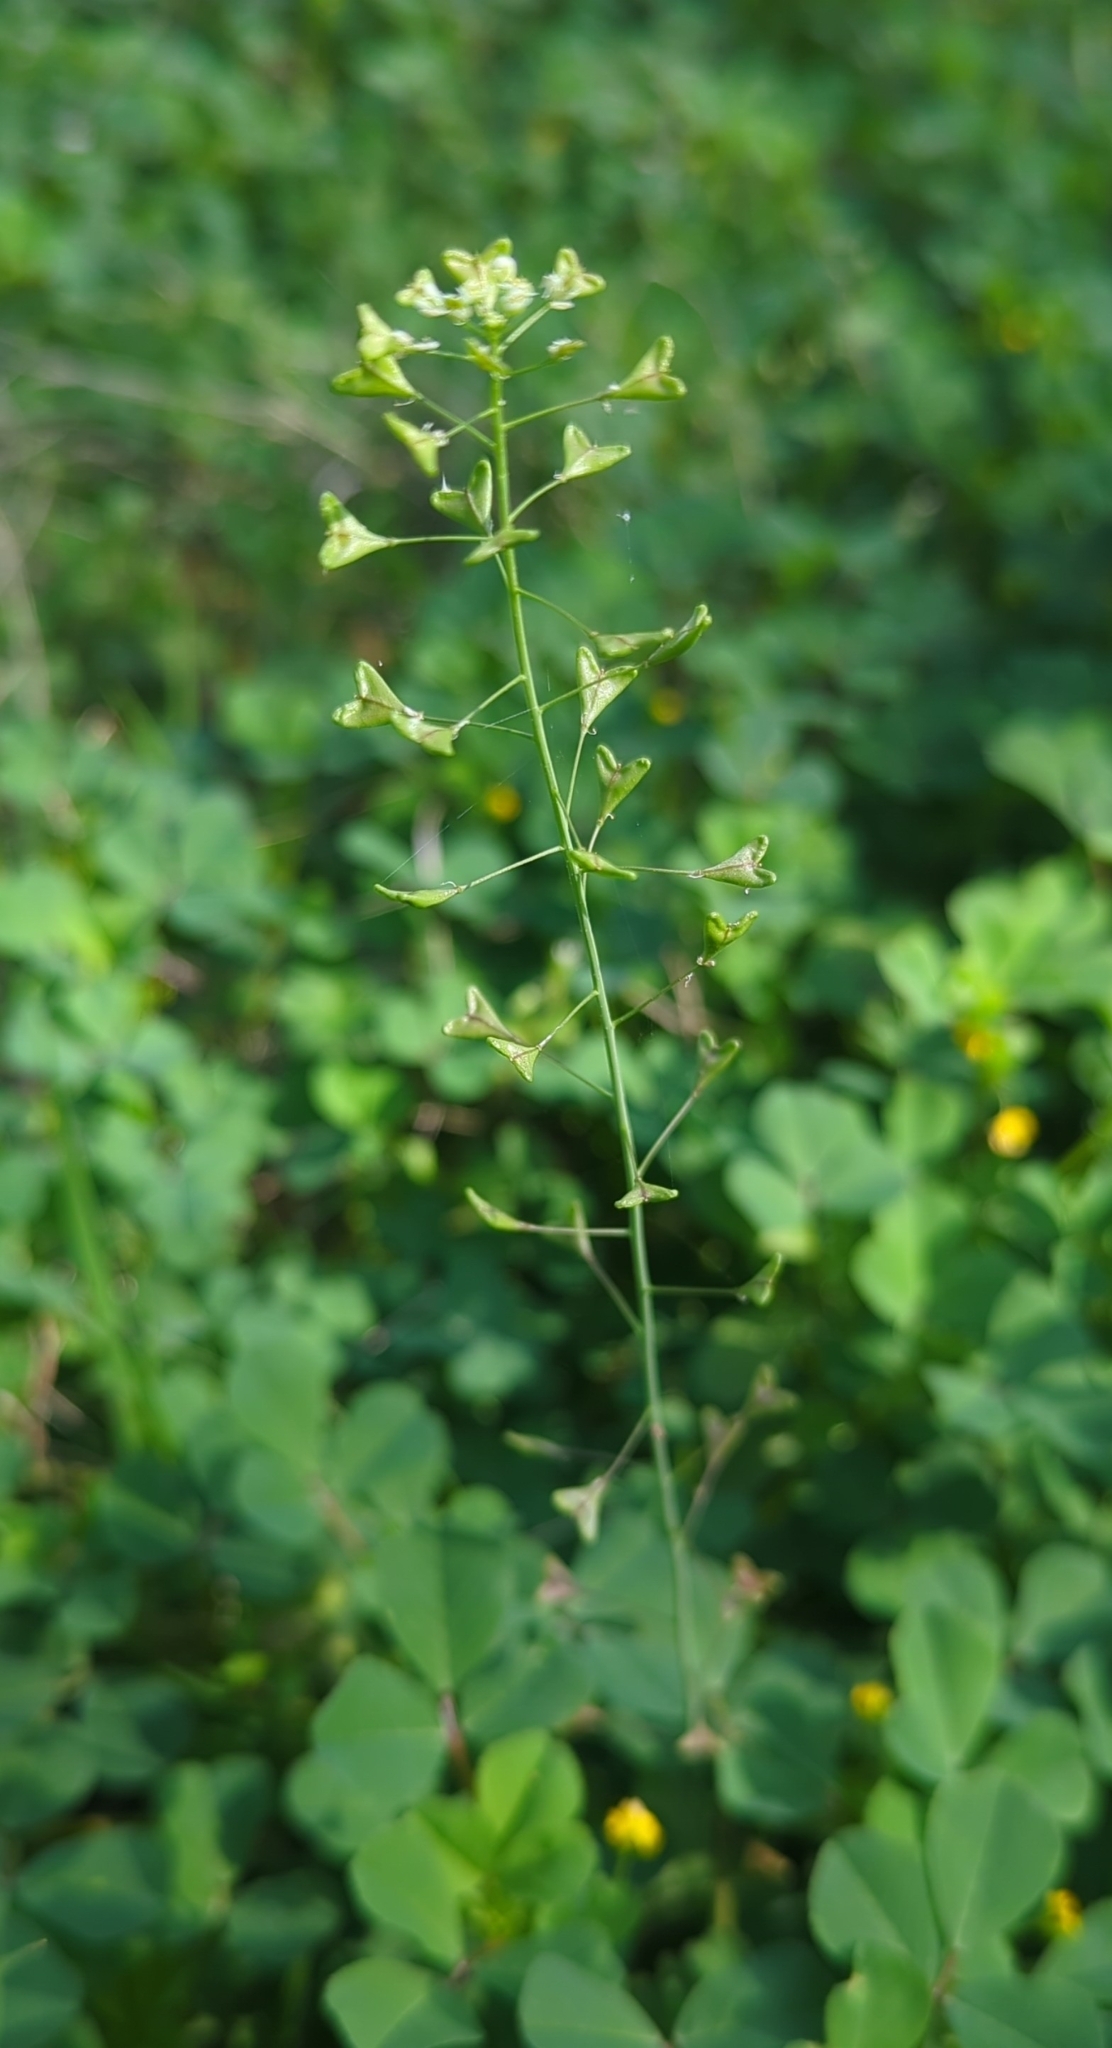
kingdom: Plantae
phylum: Tracheophyta
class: Magnoliopsida
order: Brassicales
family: Brassicaceae
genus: Capsella
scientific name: Capsella bursa-pastoris
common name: Shepherd's purse
